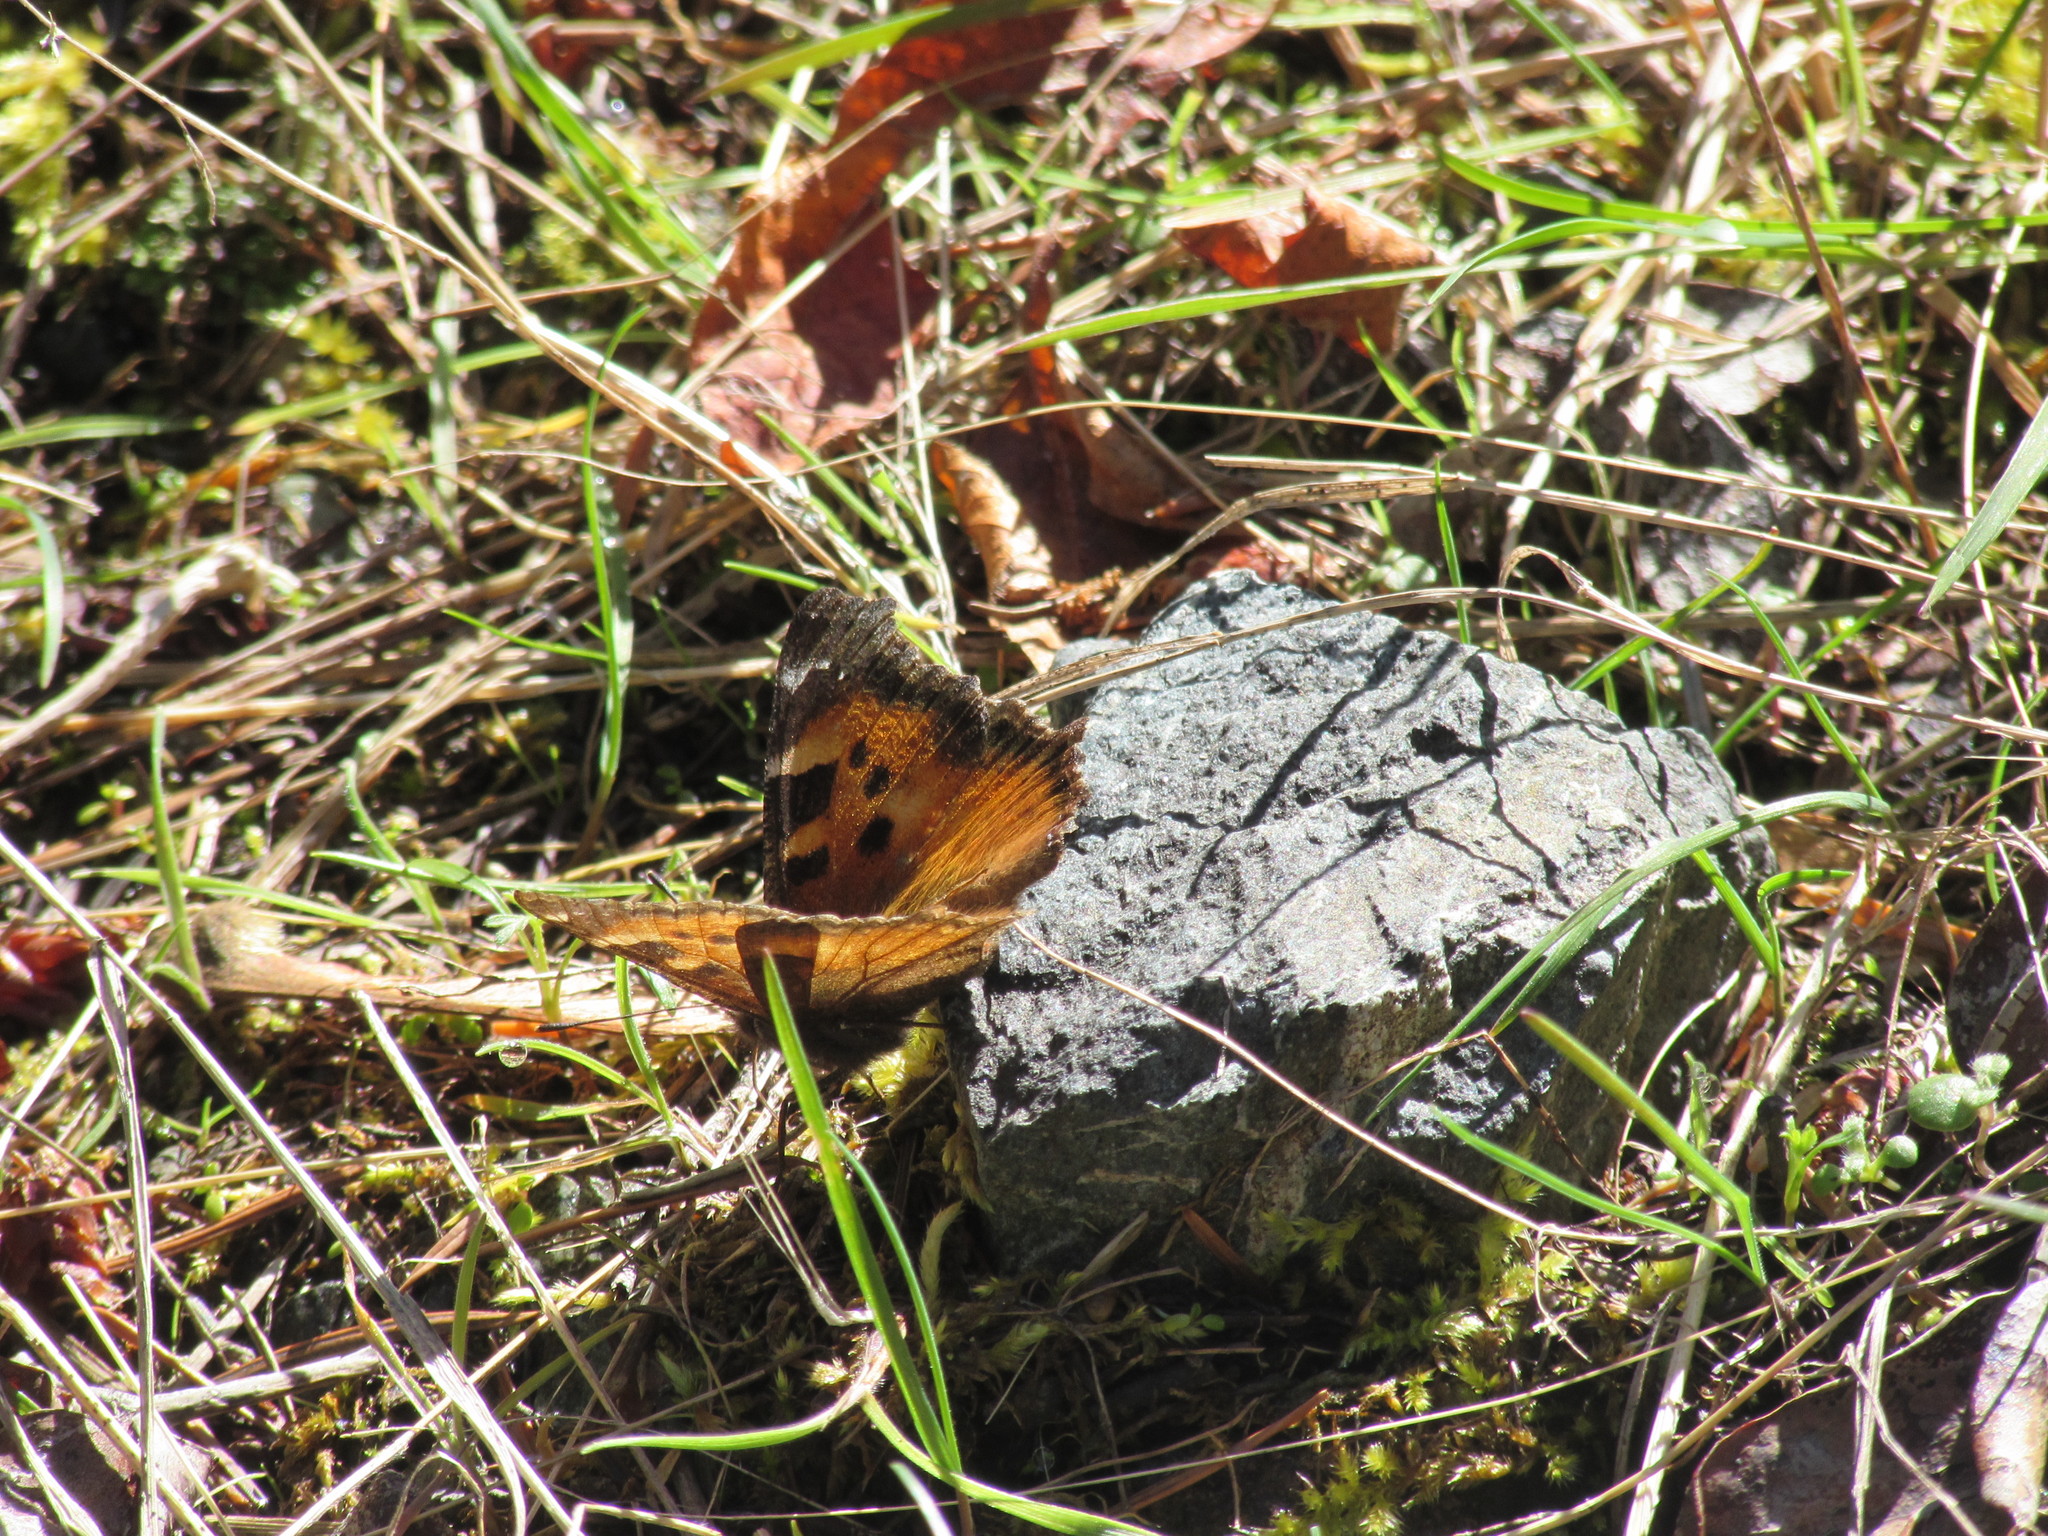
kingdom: Animalia
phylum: Arthropoda
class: Insecta
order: Lepidoptera
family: Nymphalidae
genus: Nymphalis
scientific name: Nymphalis californica
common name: California tortoiseshell
